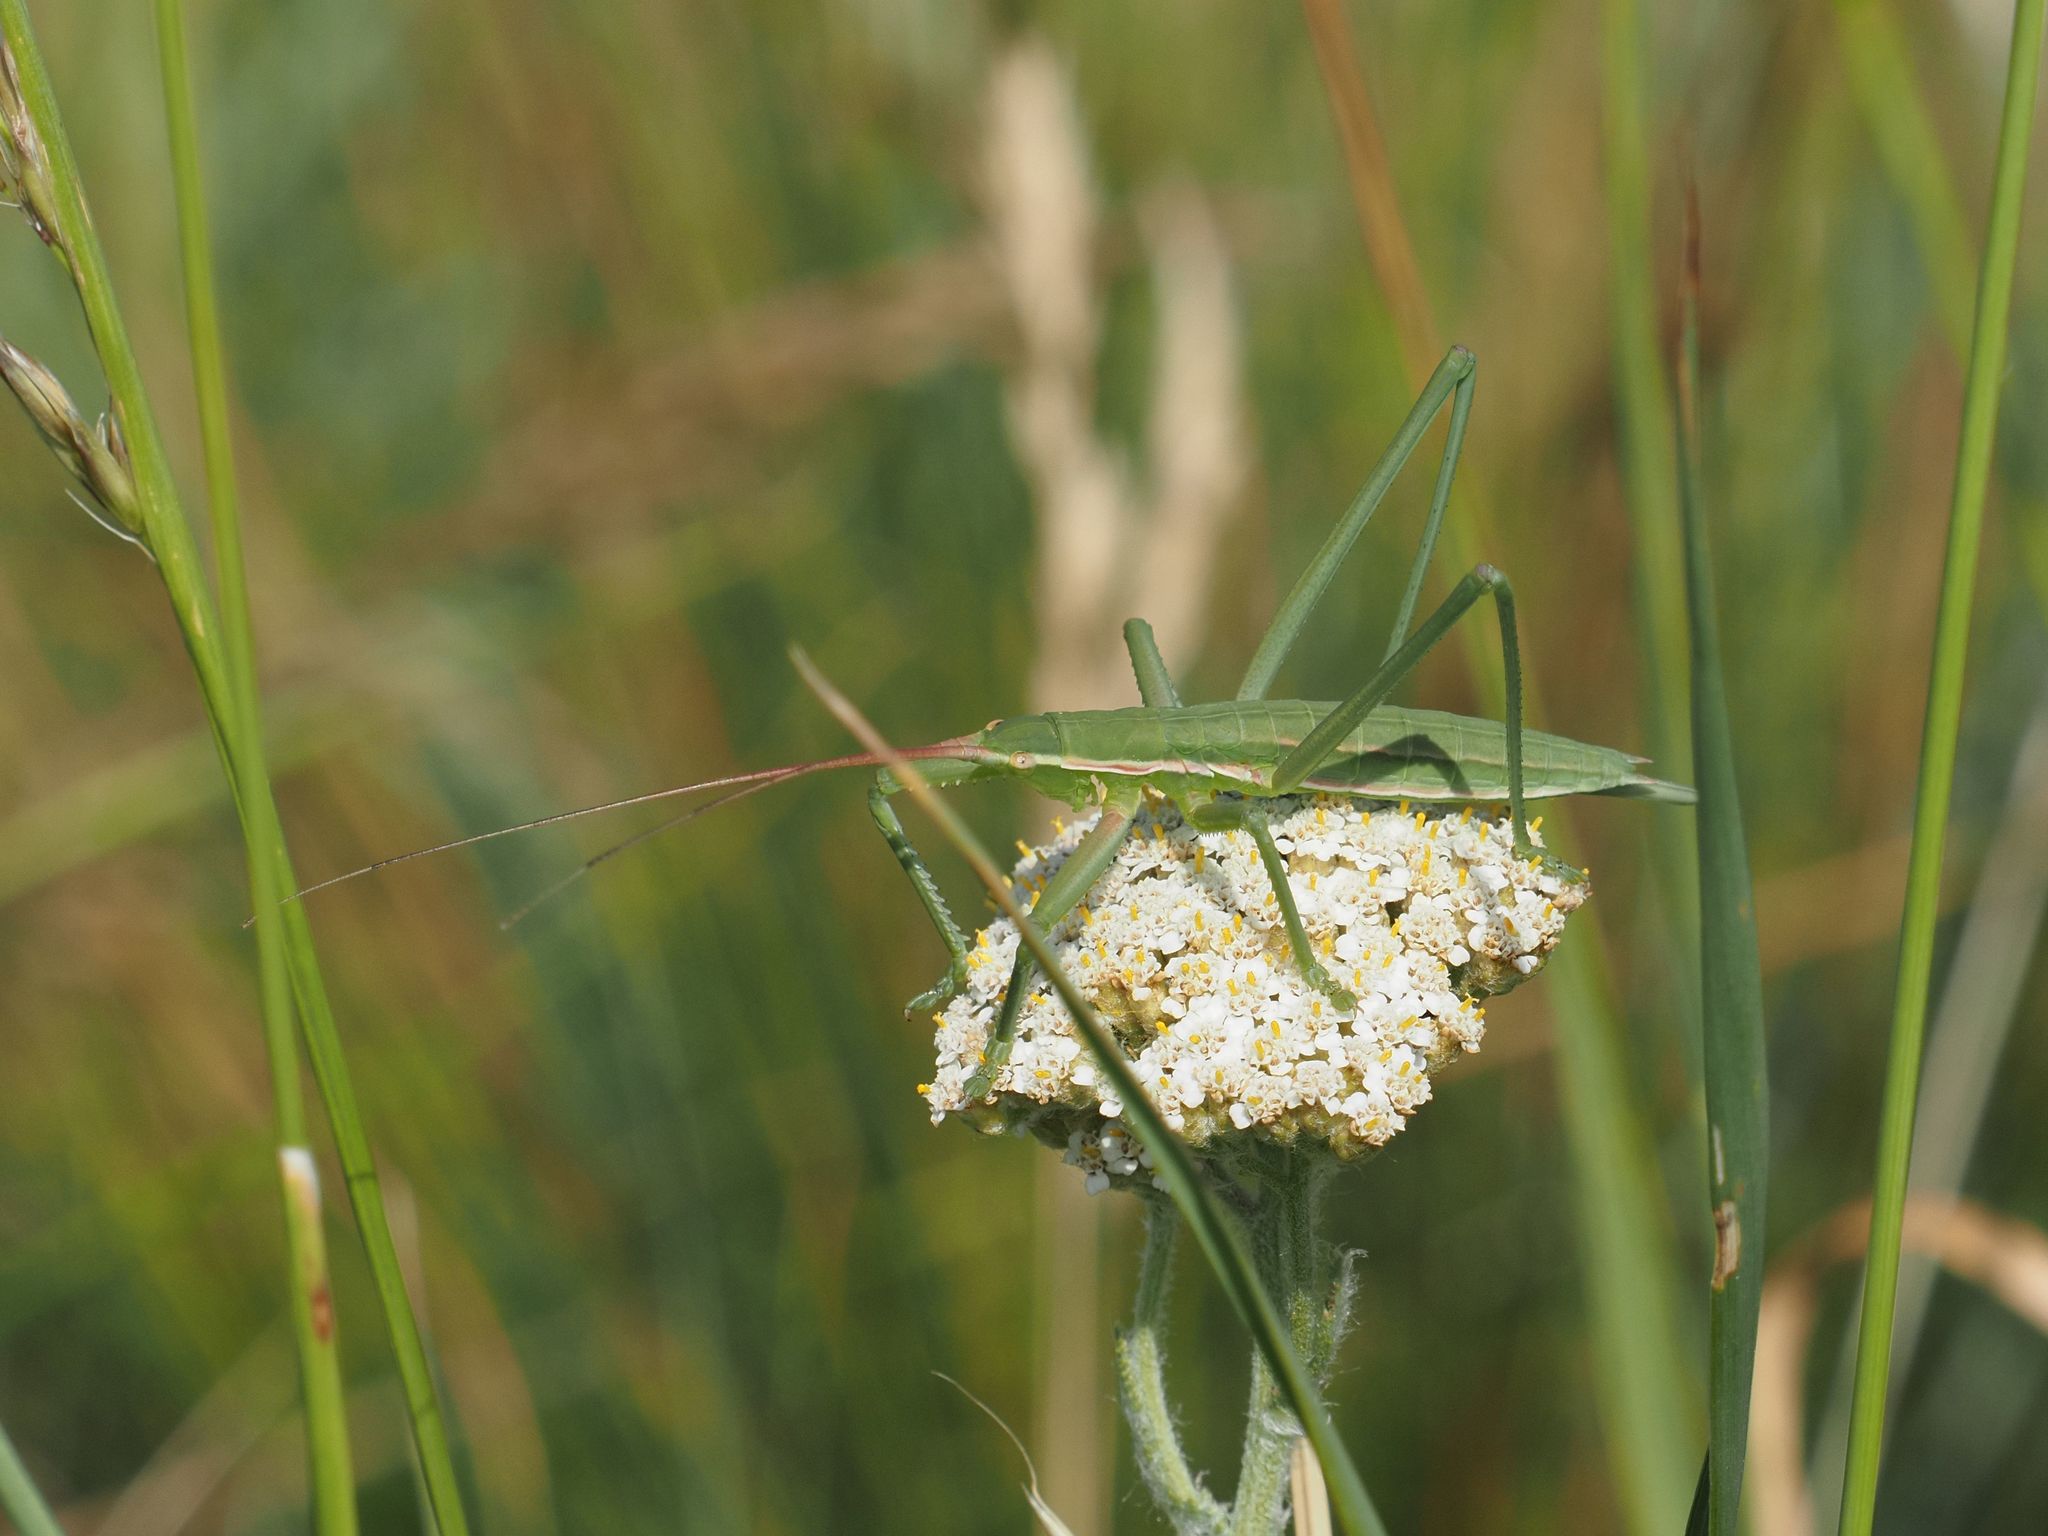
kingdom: Animalia
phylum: Arthropoda
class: Insecta
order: Orthoptera
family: Tettigoniidae
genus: Saga
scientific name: Saga pedo
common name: Common predatory bush-cricket
